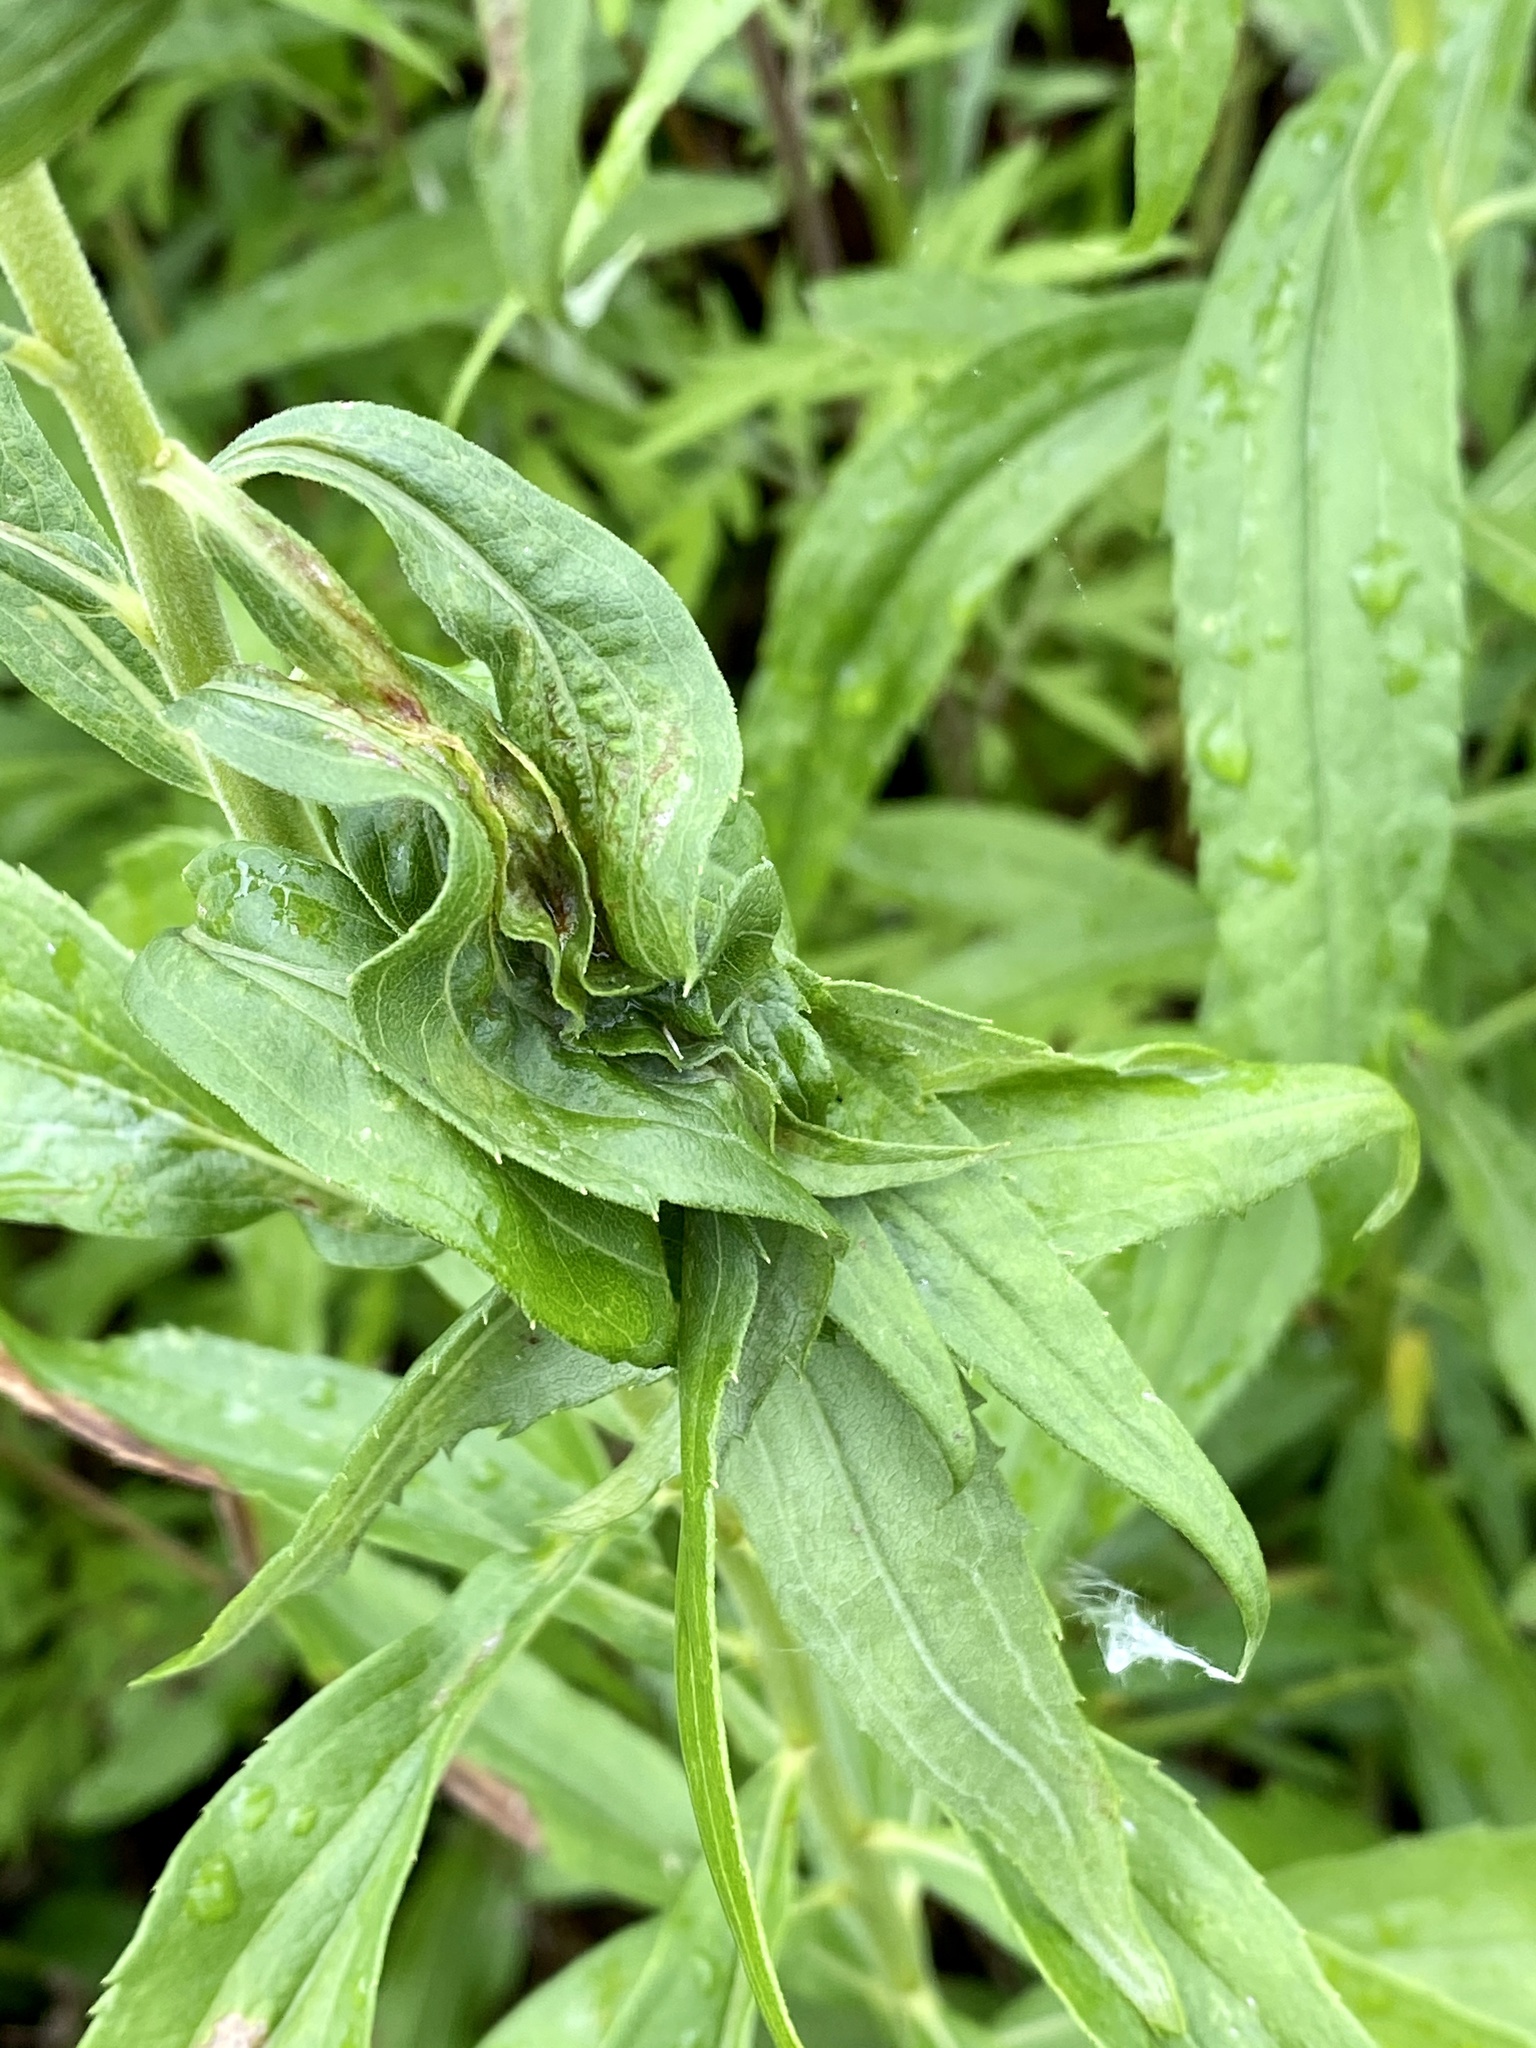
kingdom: Animalia
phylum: Arthropoda
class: Insecta
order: Diptera
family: Cecidomyiidae
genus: Rhopalomyia
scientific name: Rhopalomyia solidaginis
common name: Goldenrod bunch gall midge
